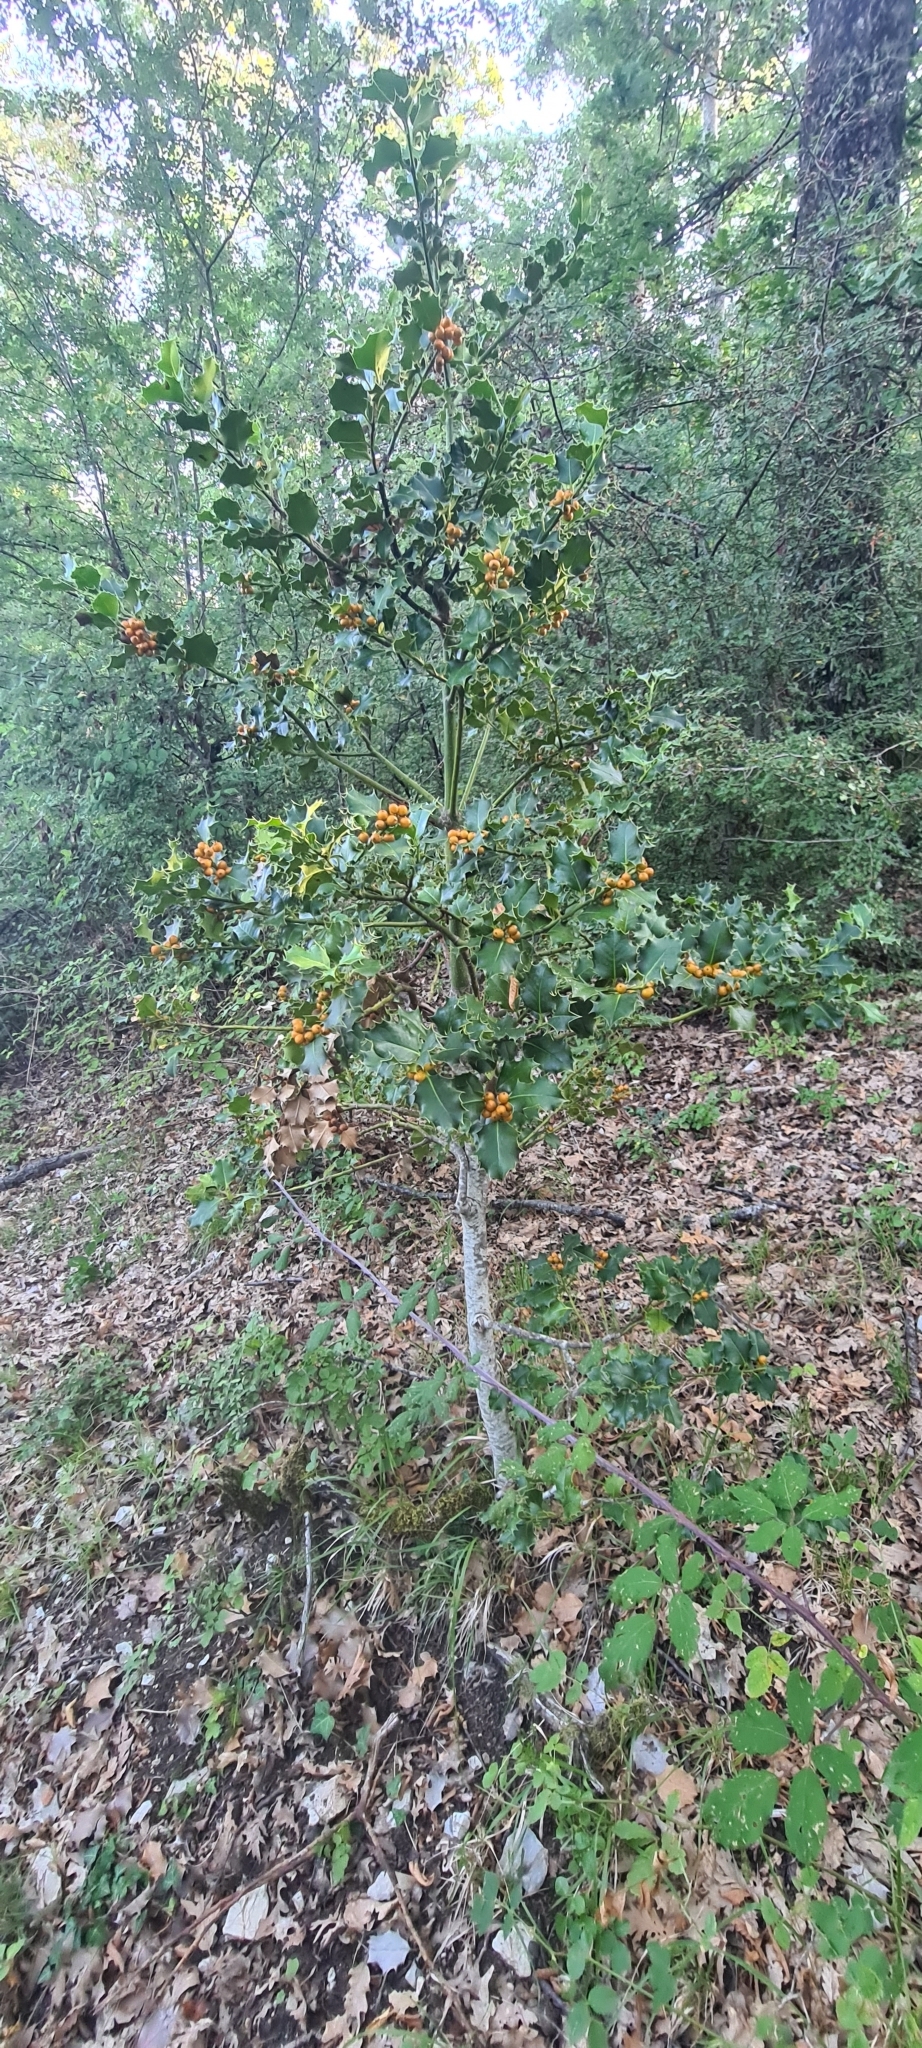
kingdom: Plantae
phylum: Tracheophyta
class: Magnoliopsida
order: Aquifoliales
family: Aquifoliaceae
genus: Ilex
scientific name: Ilex aquifolium
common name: English holly
